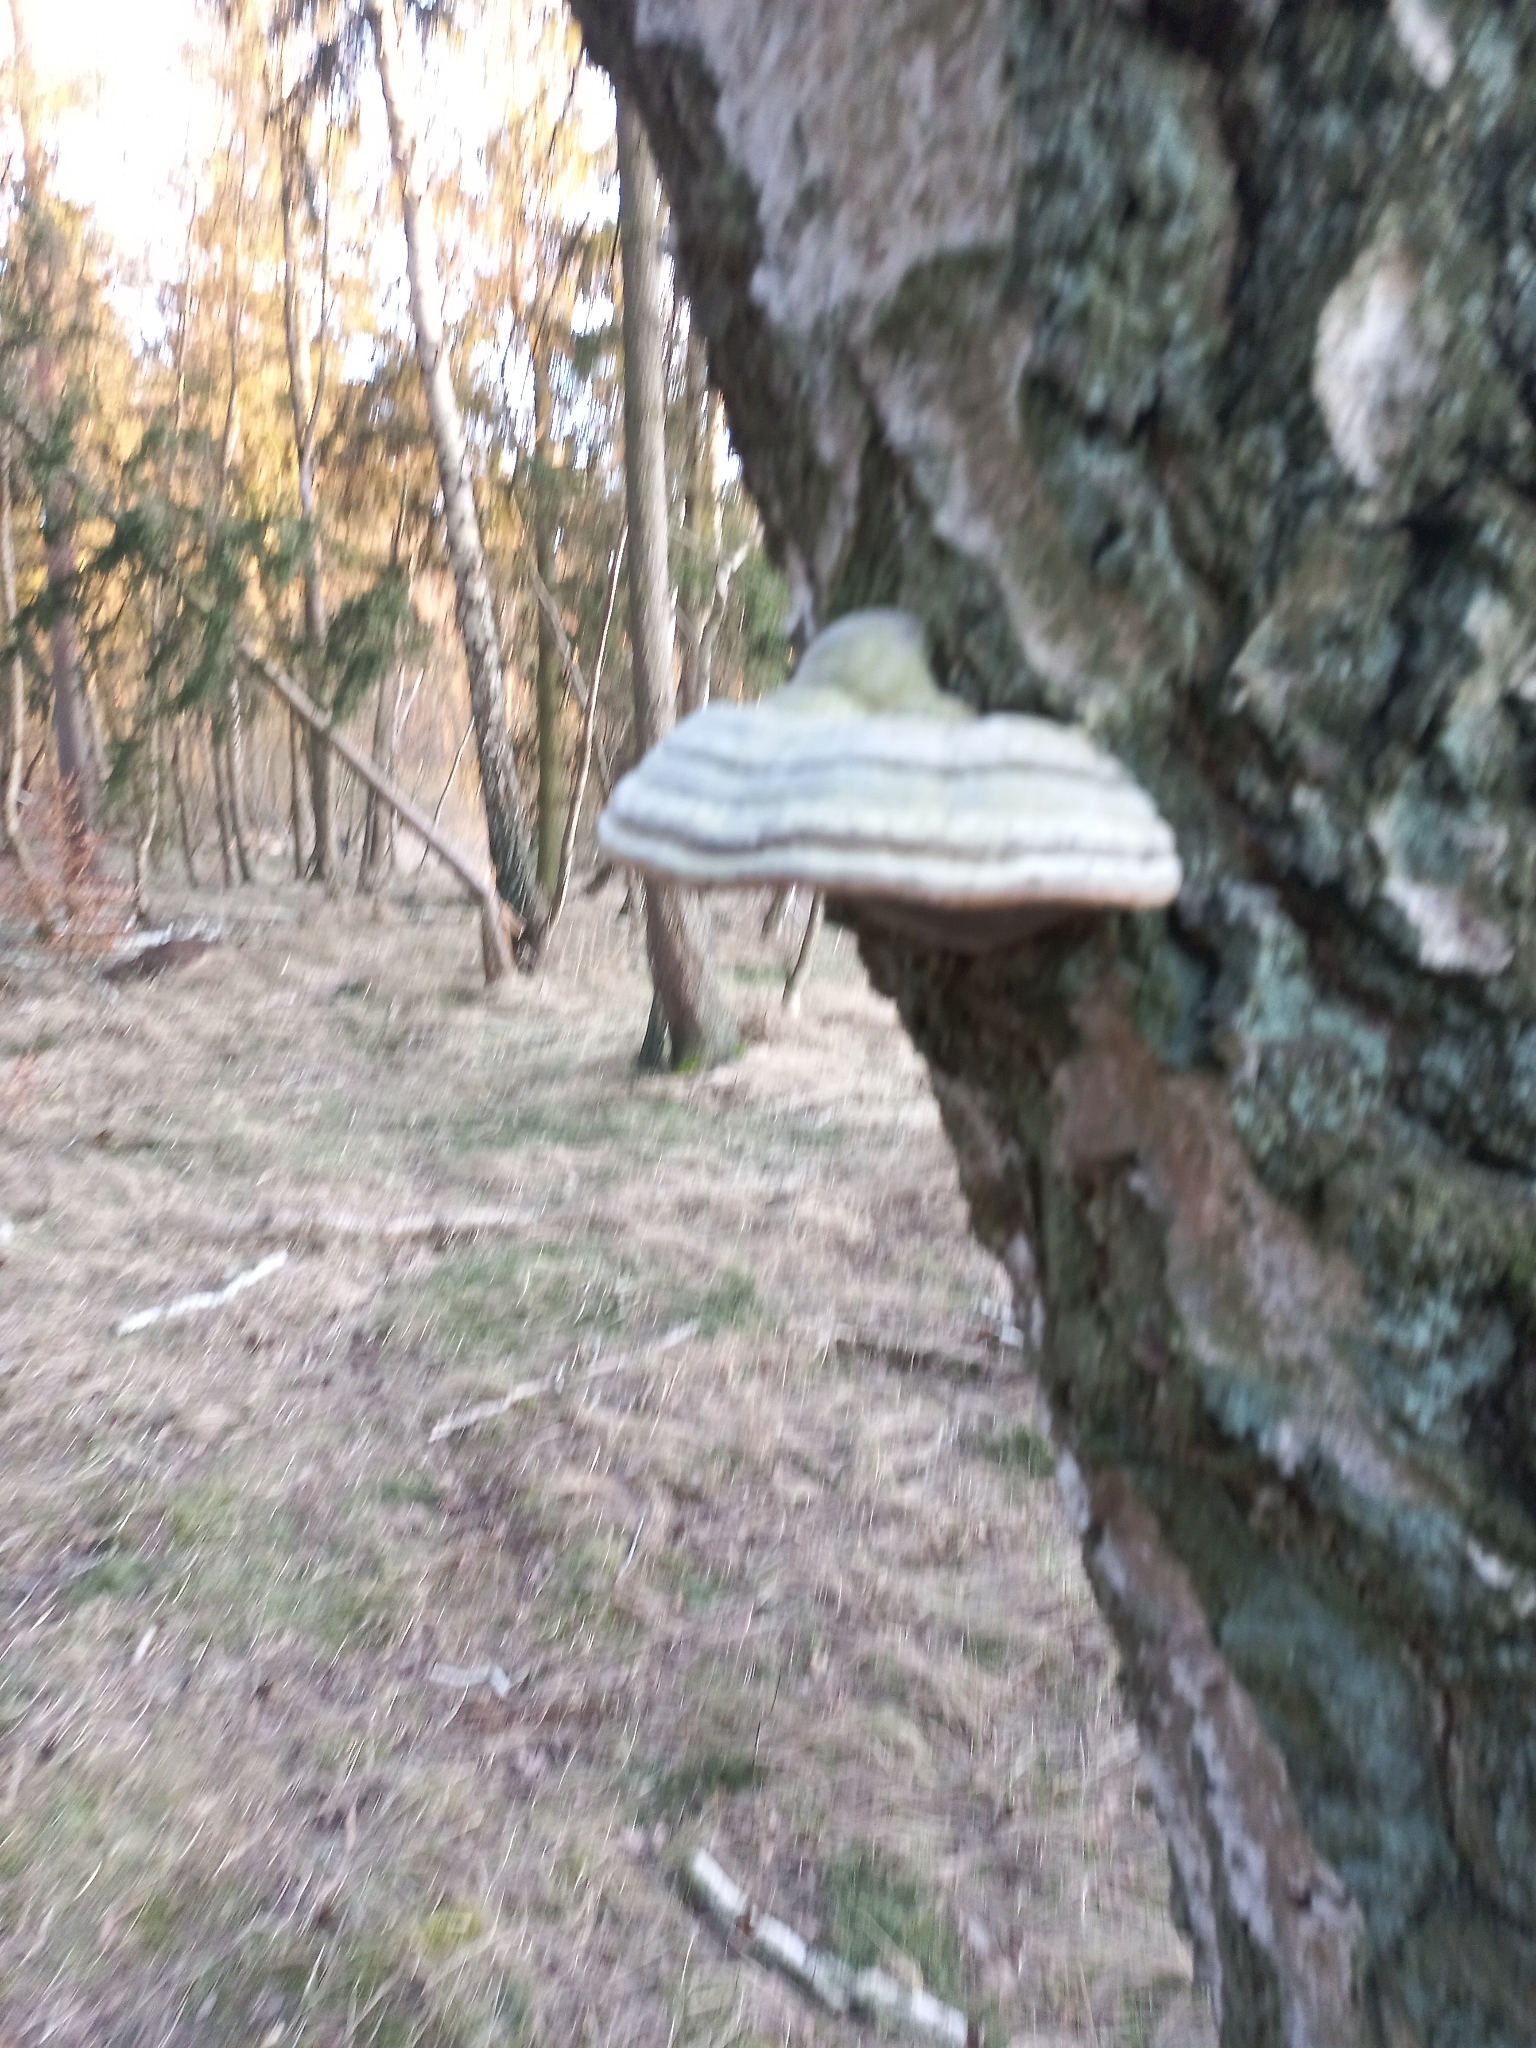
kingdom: Fungi
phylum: Basidiomycota
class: Agaricomycetes
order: Polyporales
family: Polyporaceae
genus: Fomes
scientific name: Fomes fomentarius
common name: Hoof fungus
